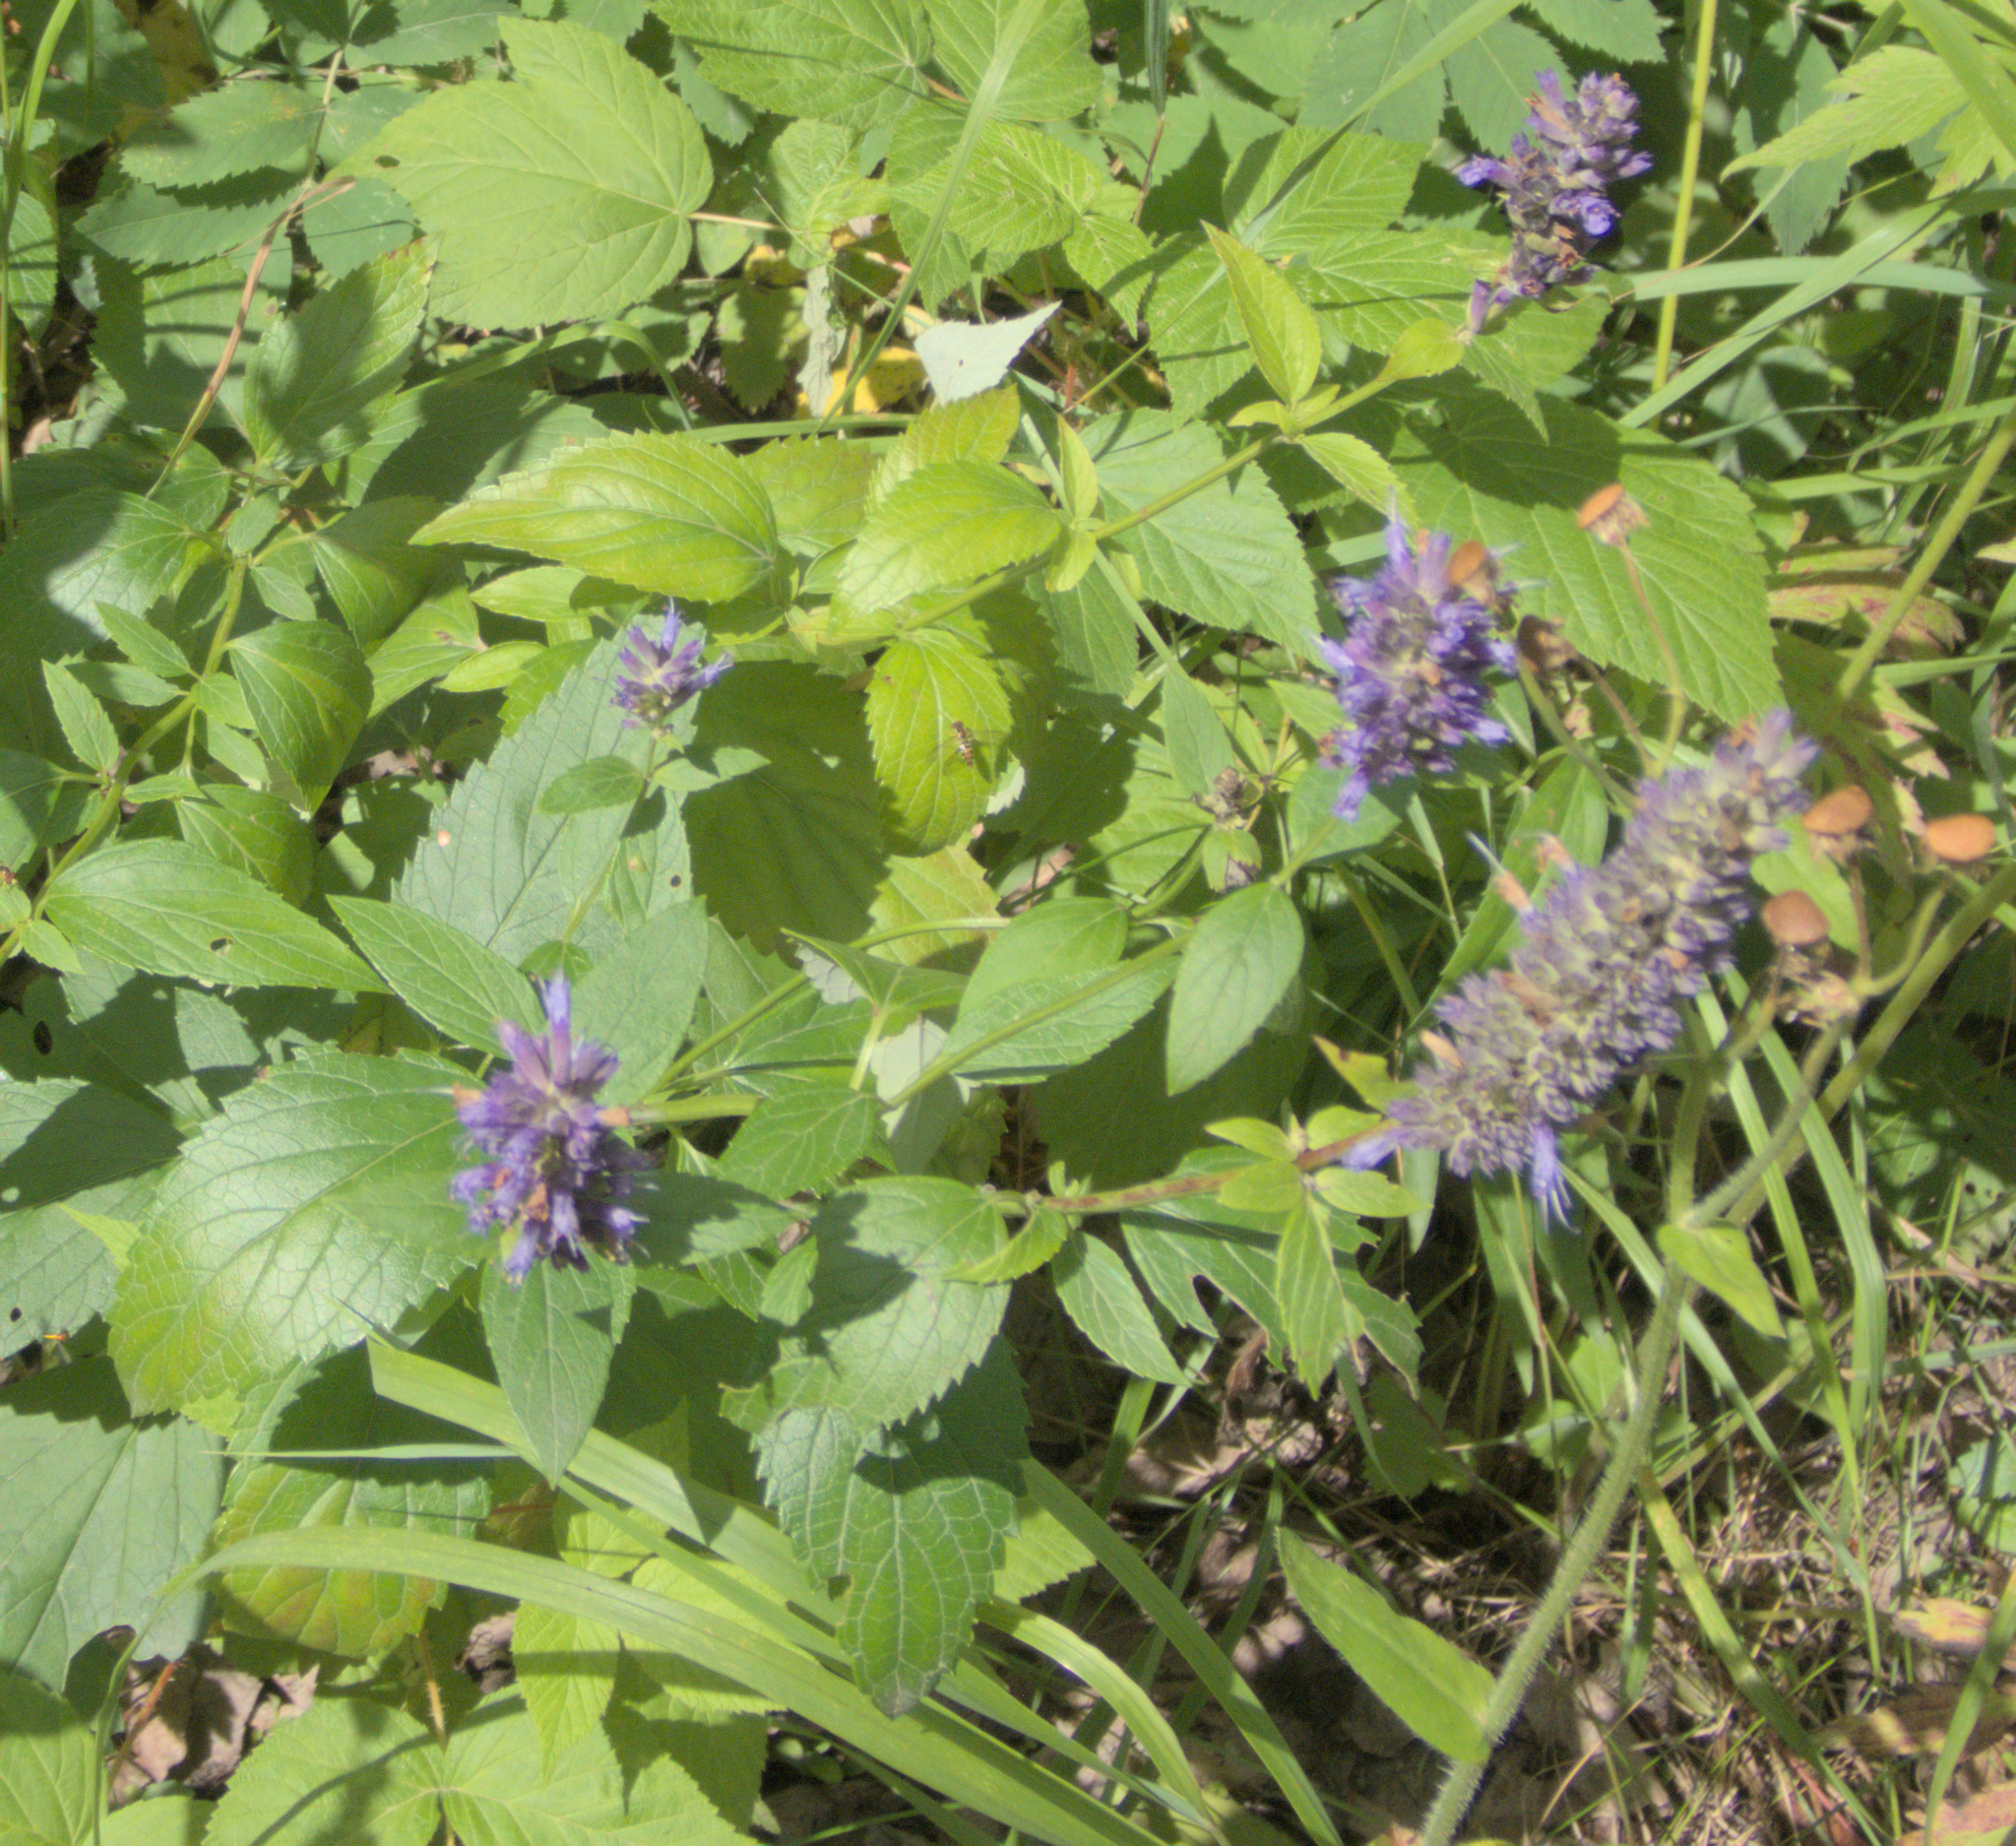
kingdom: Plantae
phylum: Tracheophyta
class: Magnoliopsida
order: Lamiales
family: Lamiaceae
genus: Agastache
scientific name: Agastache foeniculum
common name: Anise hyssop
